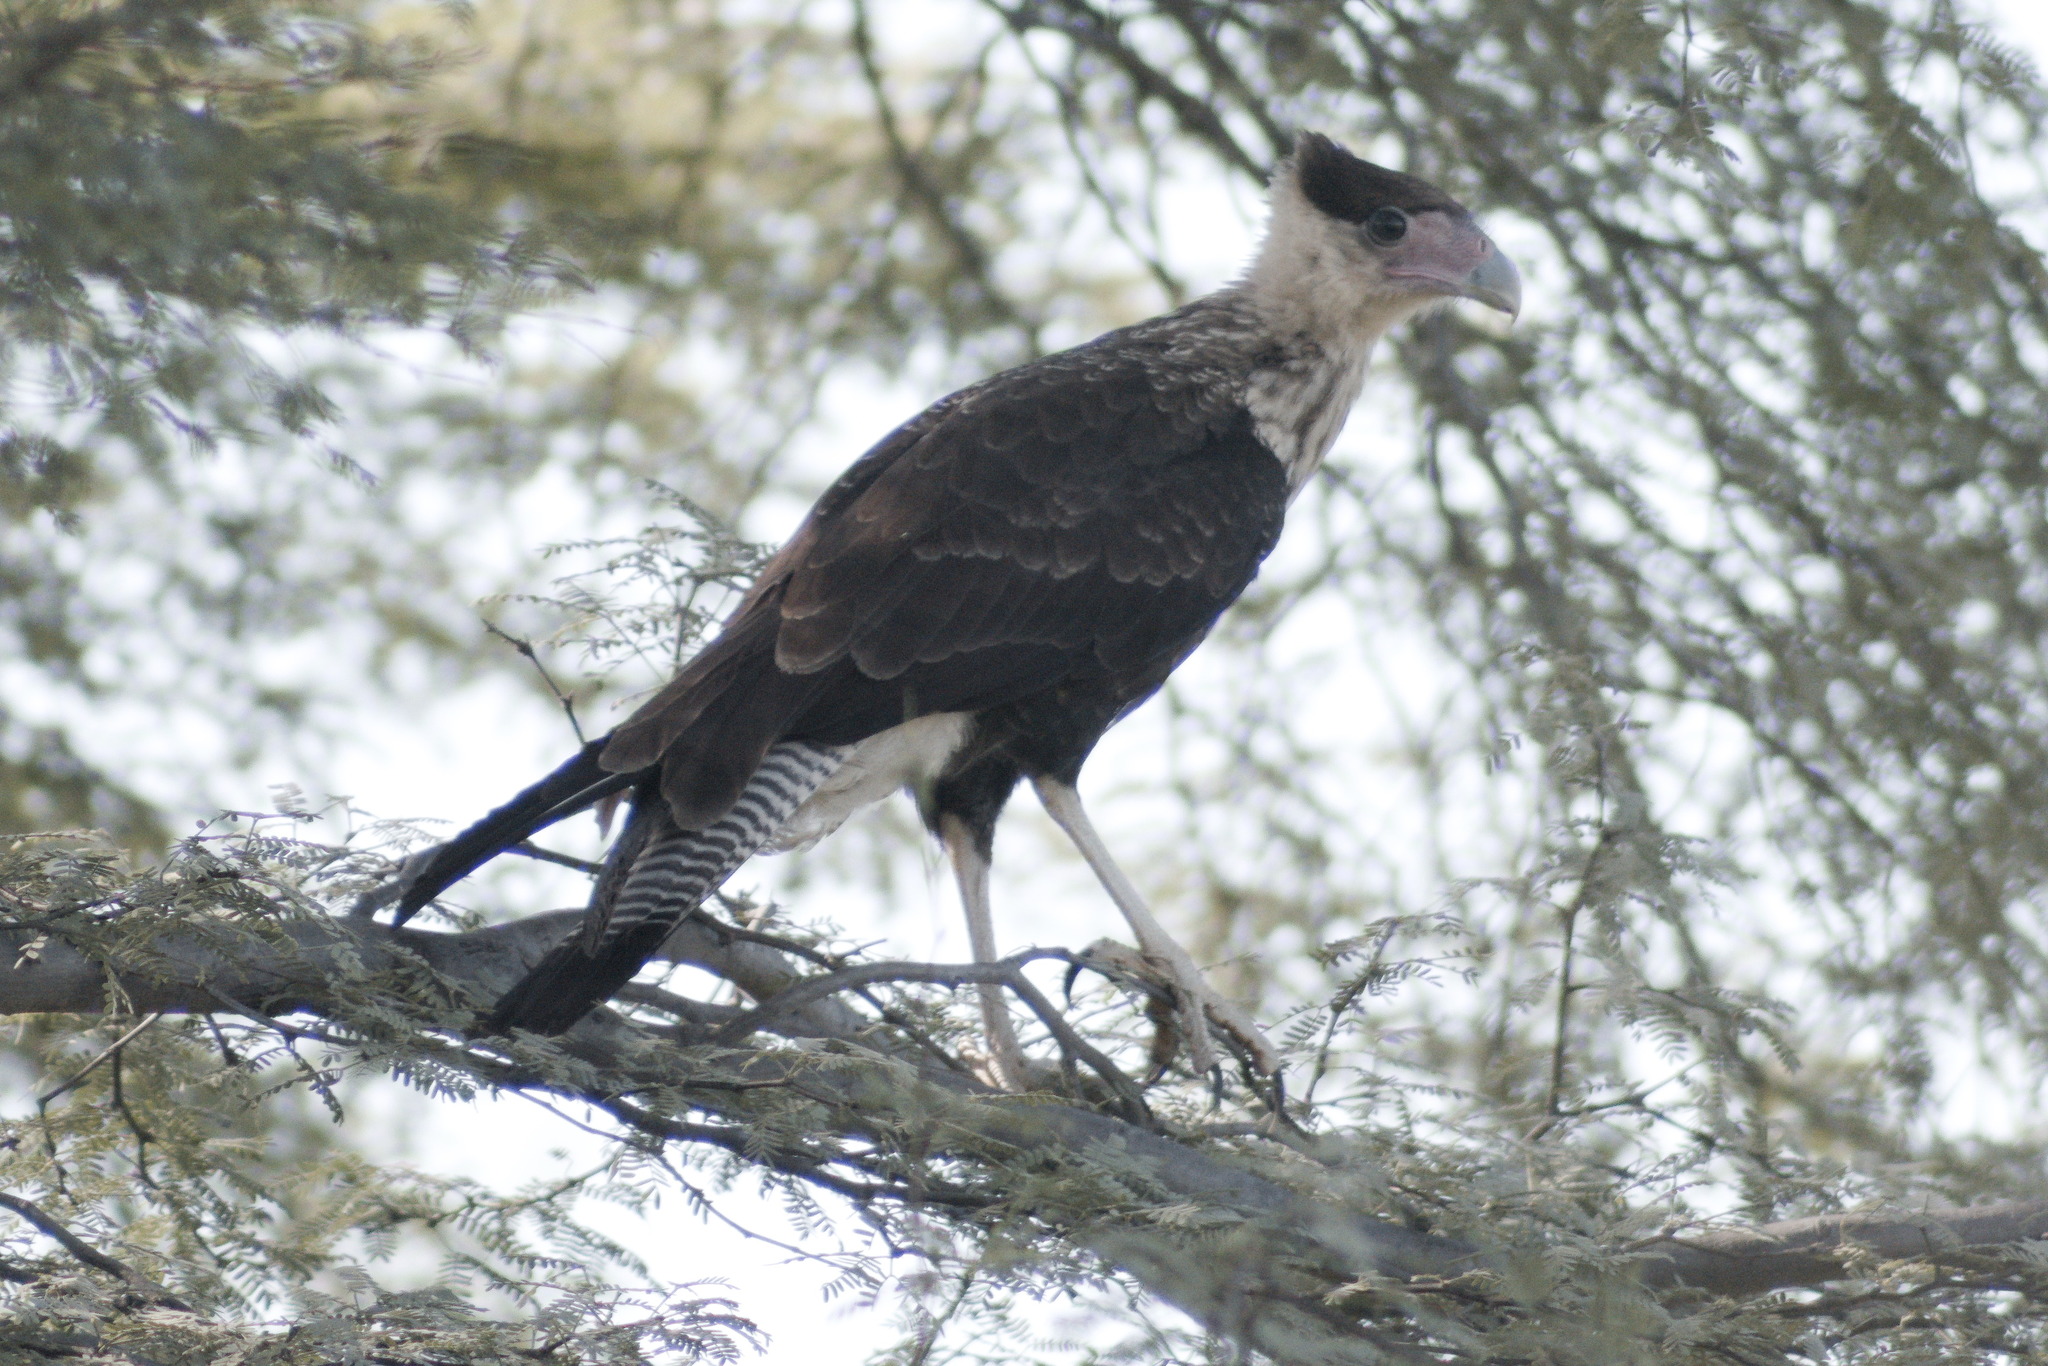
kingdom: Animalia
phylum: Chordata
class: Aves
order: Falconiformes
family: Falconidae
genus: Caracara
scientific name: Caracara plancus
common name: Southern caracara
